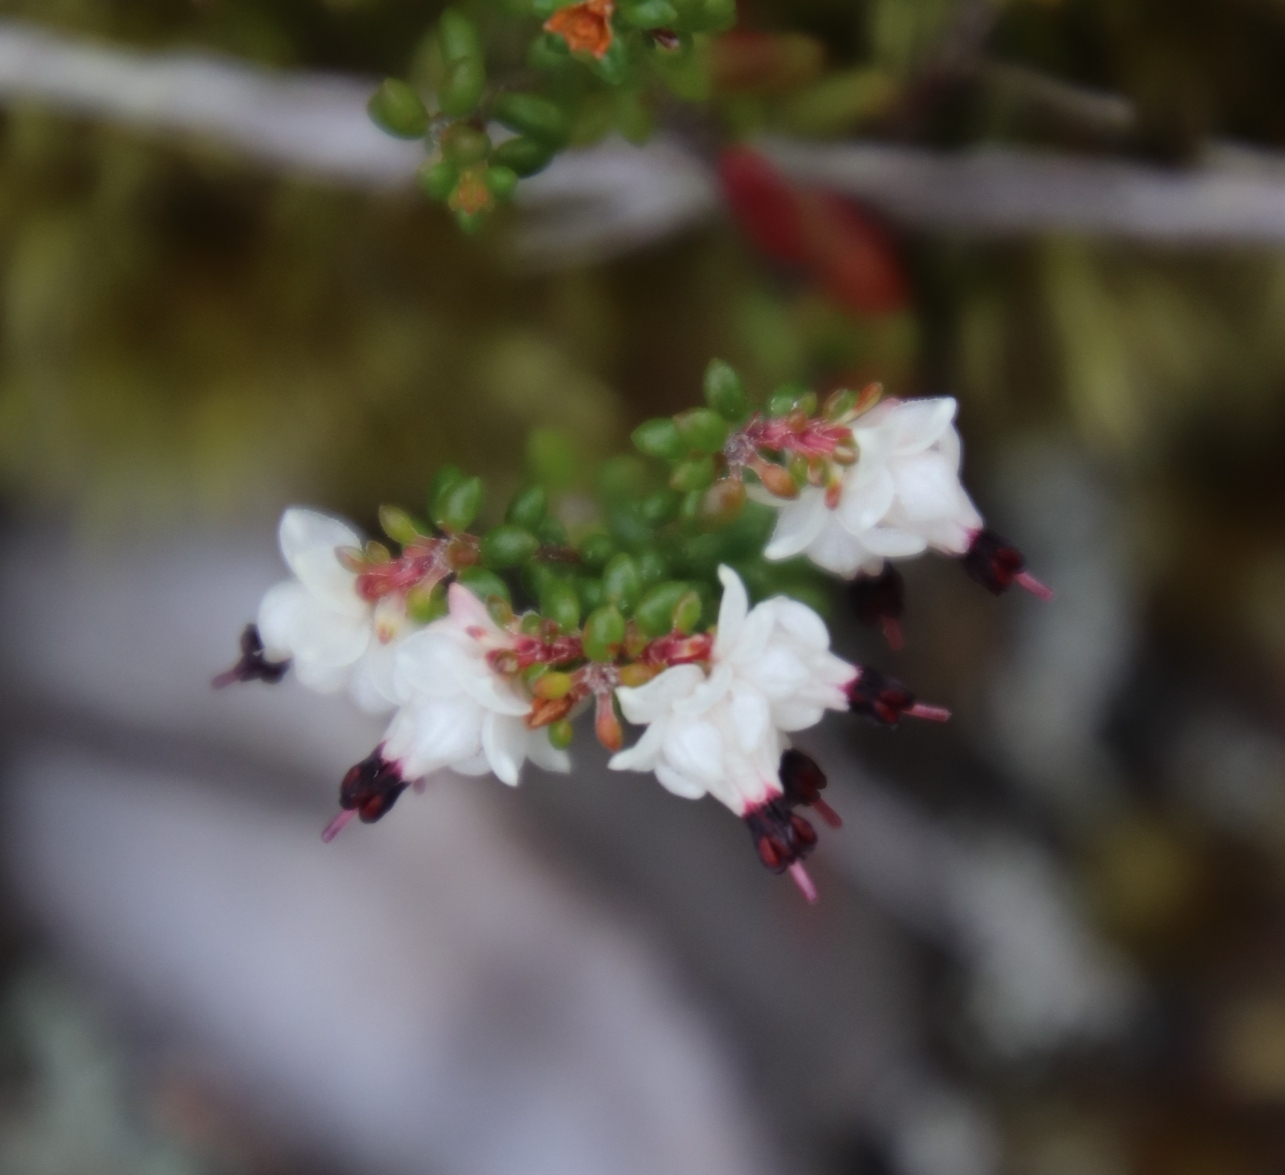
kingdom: Plantae
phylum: Tracheophyta
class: Magnoliopsida
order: Ericales
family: Ericaceae
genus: Erica
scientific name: Erica azaleifolia
